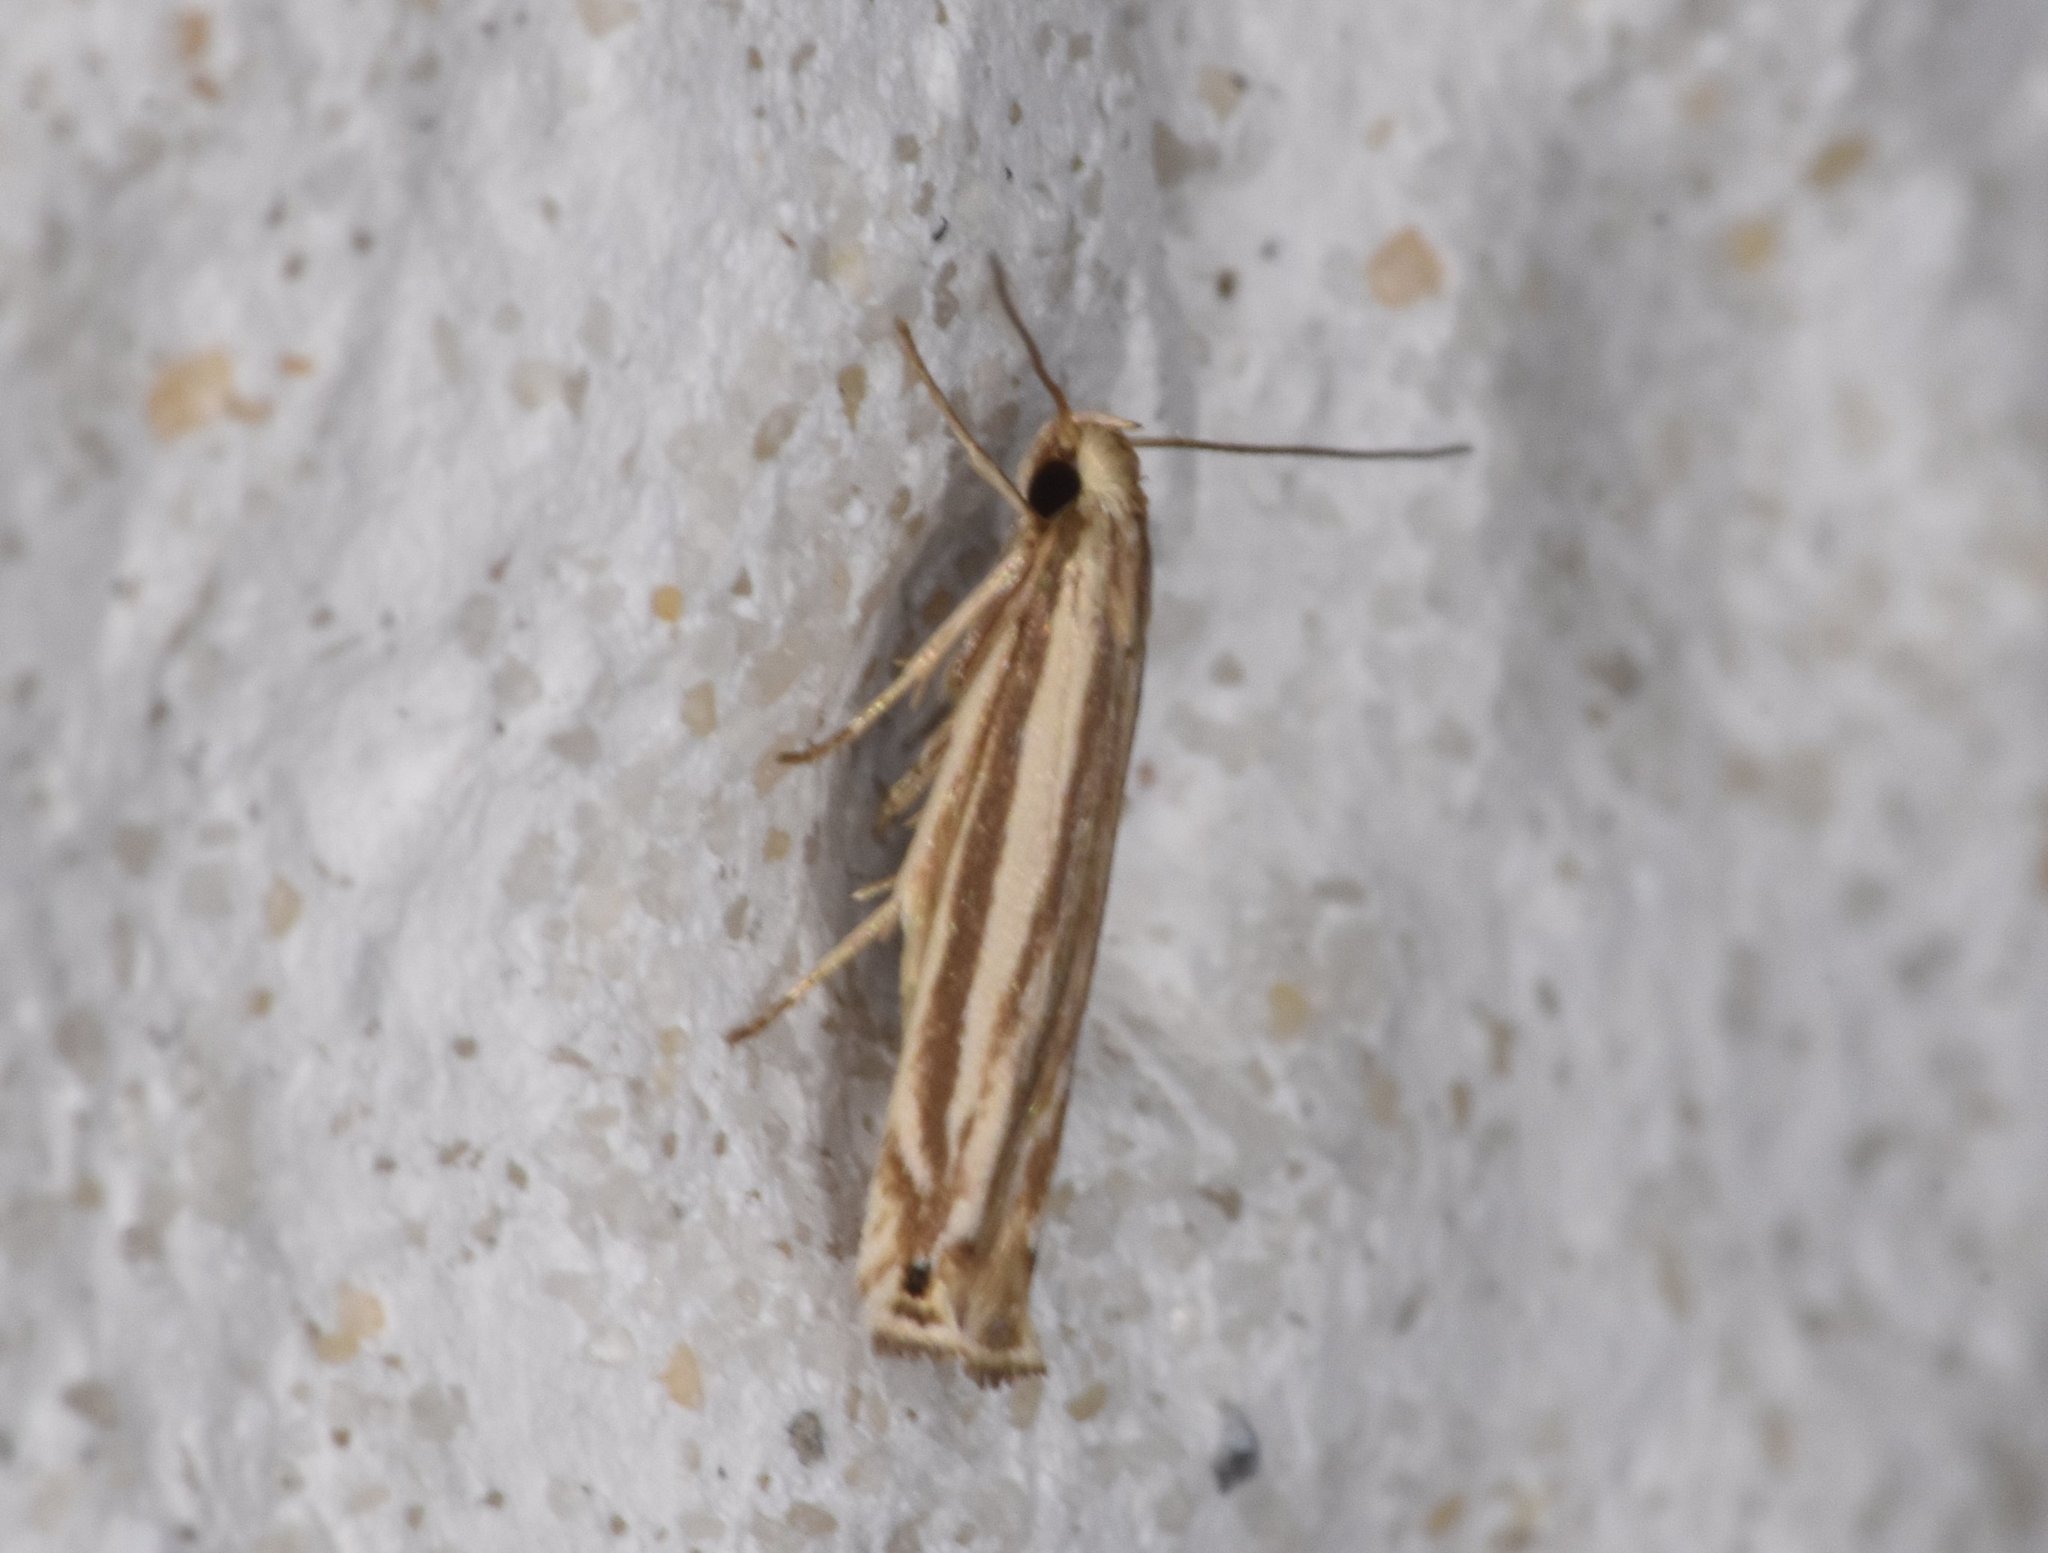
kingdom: Animalia
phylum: Arthropoda
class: Insecta
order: Lepidoptera
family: Gelechiidae
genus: Polyhymno
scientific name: Polyhymno luteostrigella
